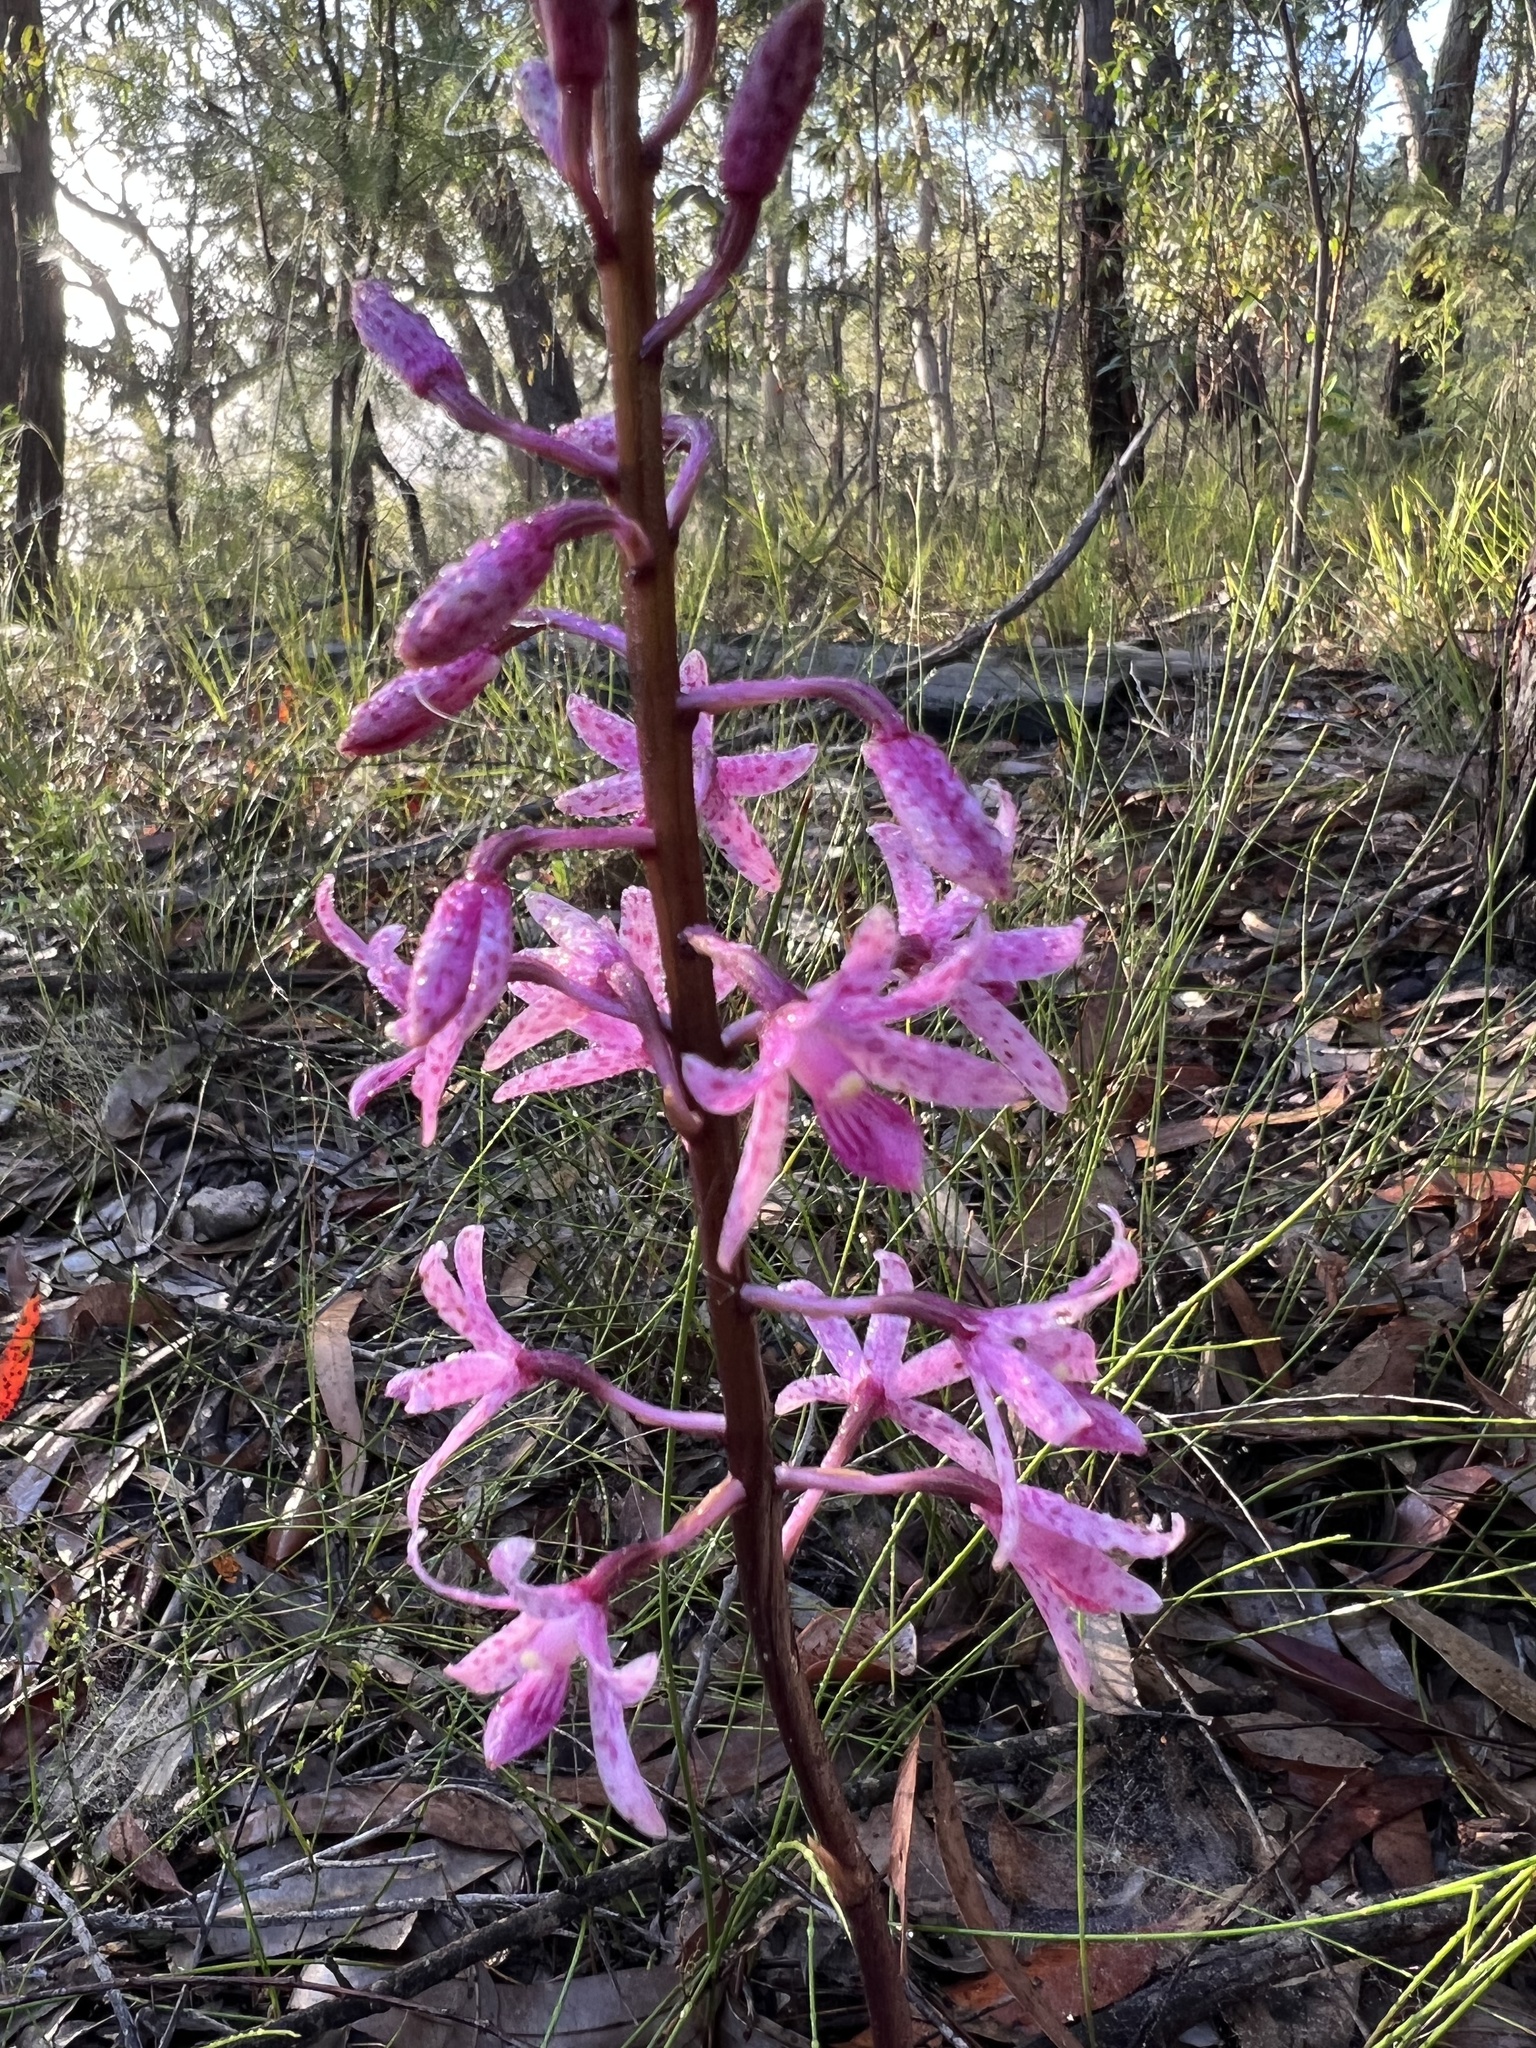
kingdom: Plantae
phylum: Tracheophyta
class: Liliopsida
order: Asparagales
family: Orchidaceae
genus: Dipodium
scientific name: Dipodium roseum
